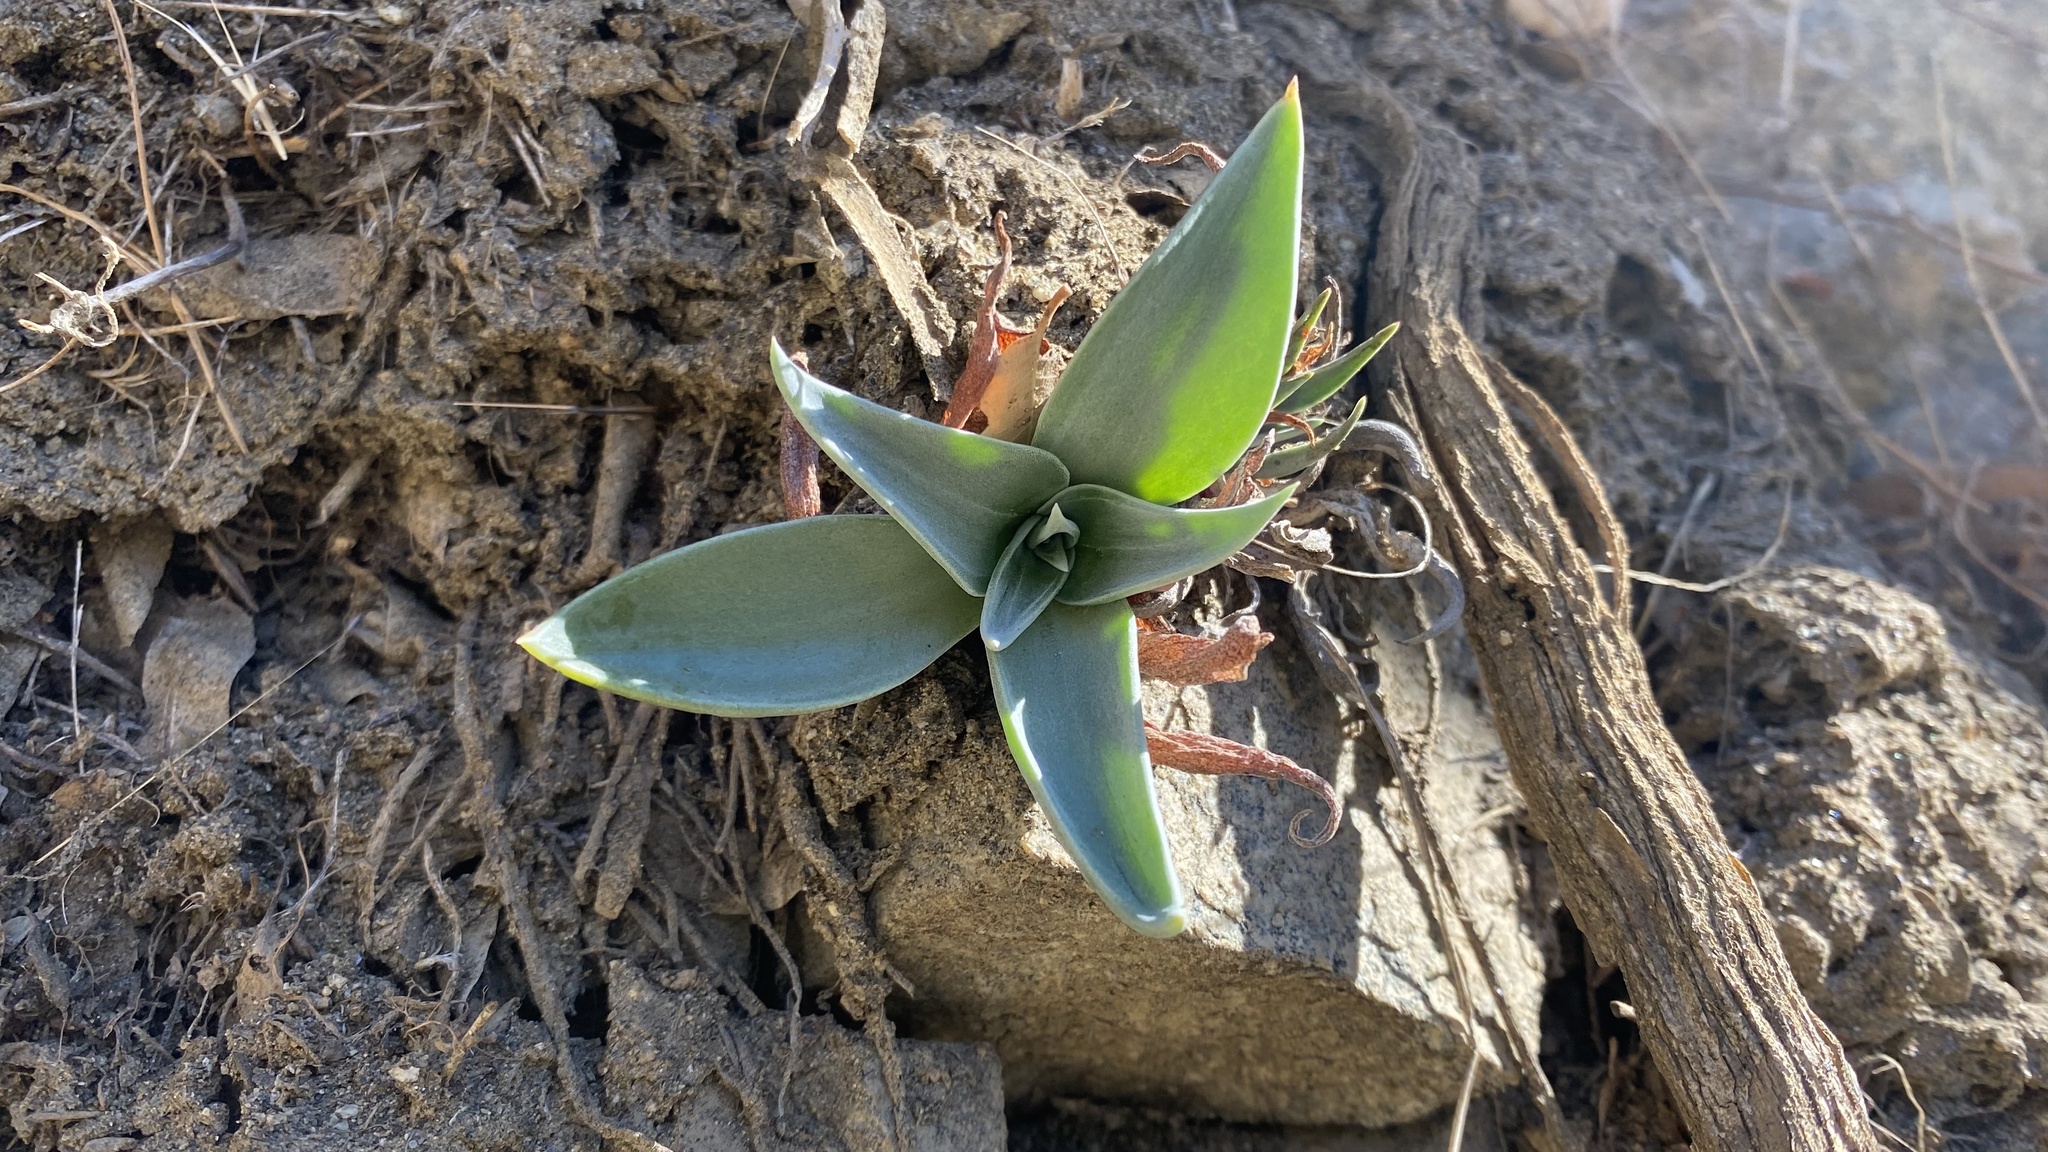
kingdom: Plantae
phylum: Tracheophyta
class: Magnoliopsida
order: Saxifragales
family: Crassulaceae
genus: Dudleya
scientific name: Dudleya
